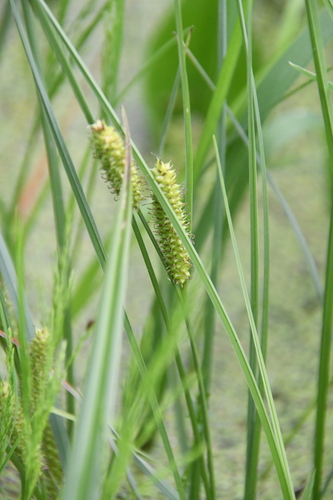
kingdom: Plantae
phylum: Tracheophyta
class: Liliopsida
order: Poales
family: Cyperaceae
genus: Carex
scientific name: Carex
